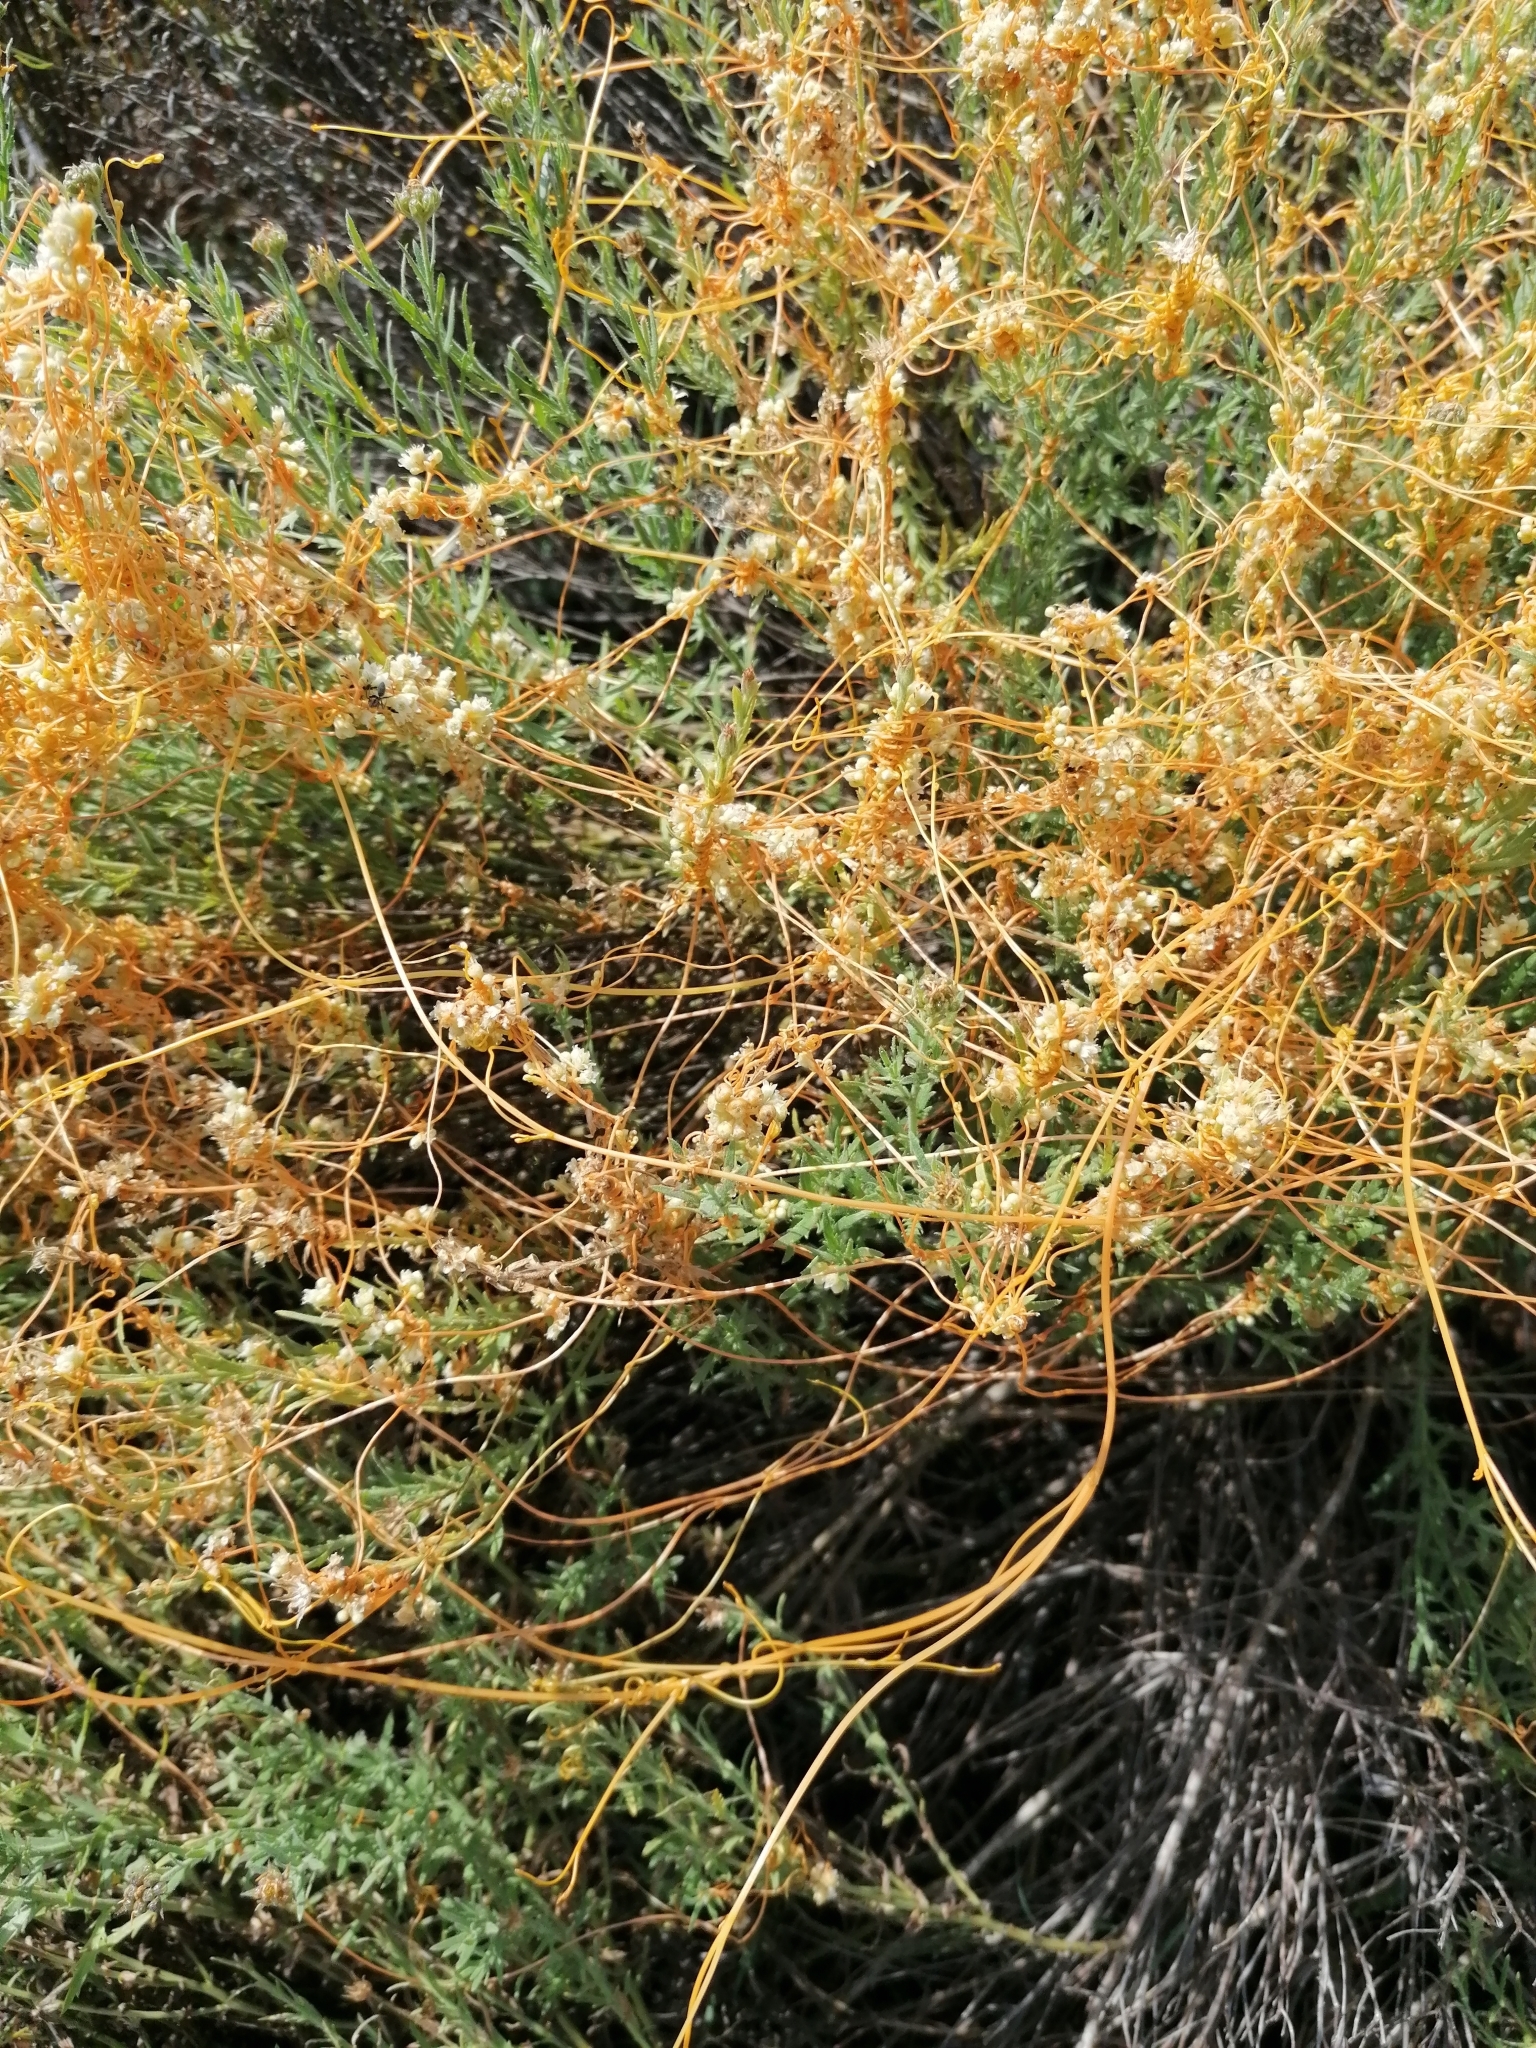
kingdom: Plantae
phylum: Tracheophyta
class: Magnoliopsida
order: Solanales
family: Convolvulaceae
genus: Cuscuta
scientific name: Cuscuta campestris
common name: Yellow dodder
